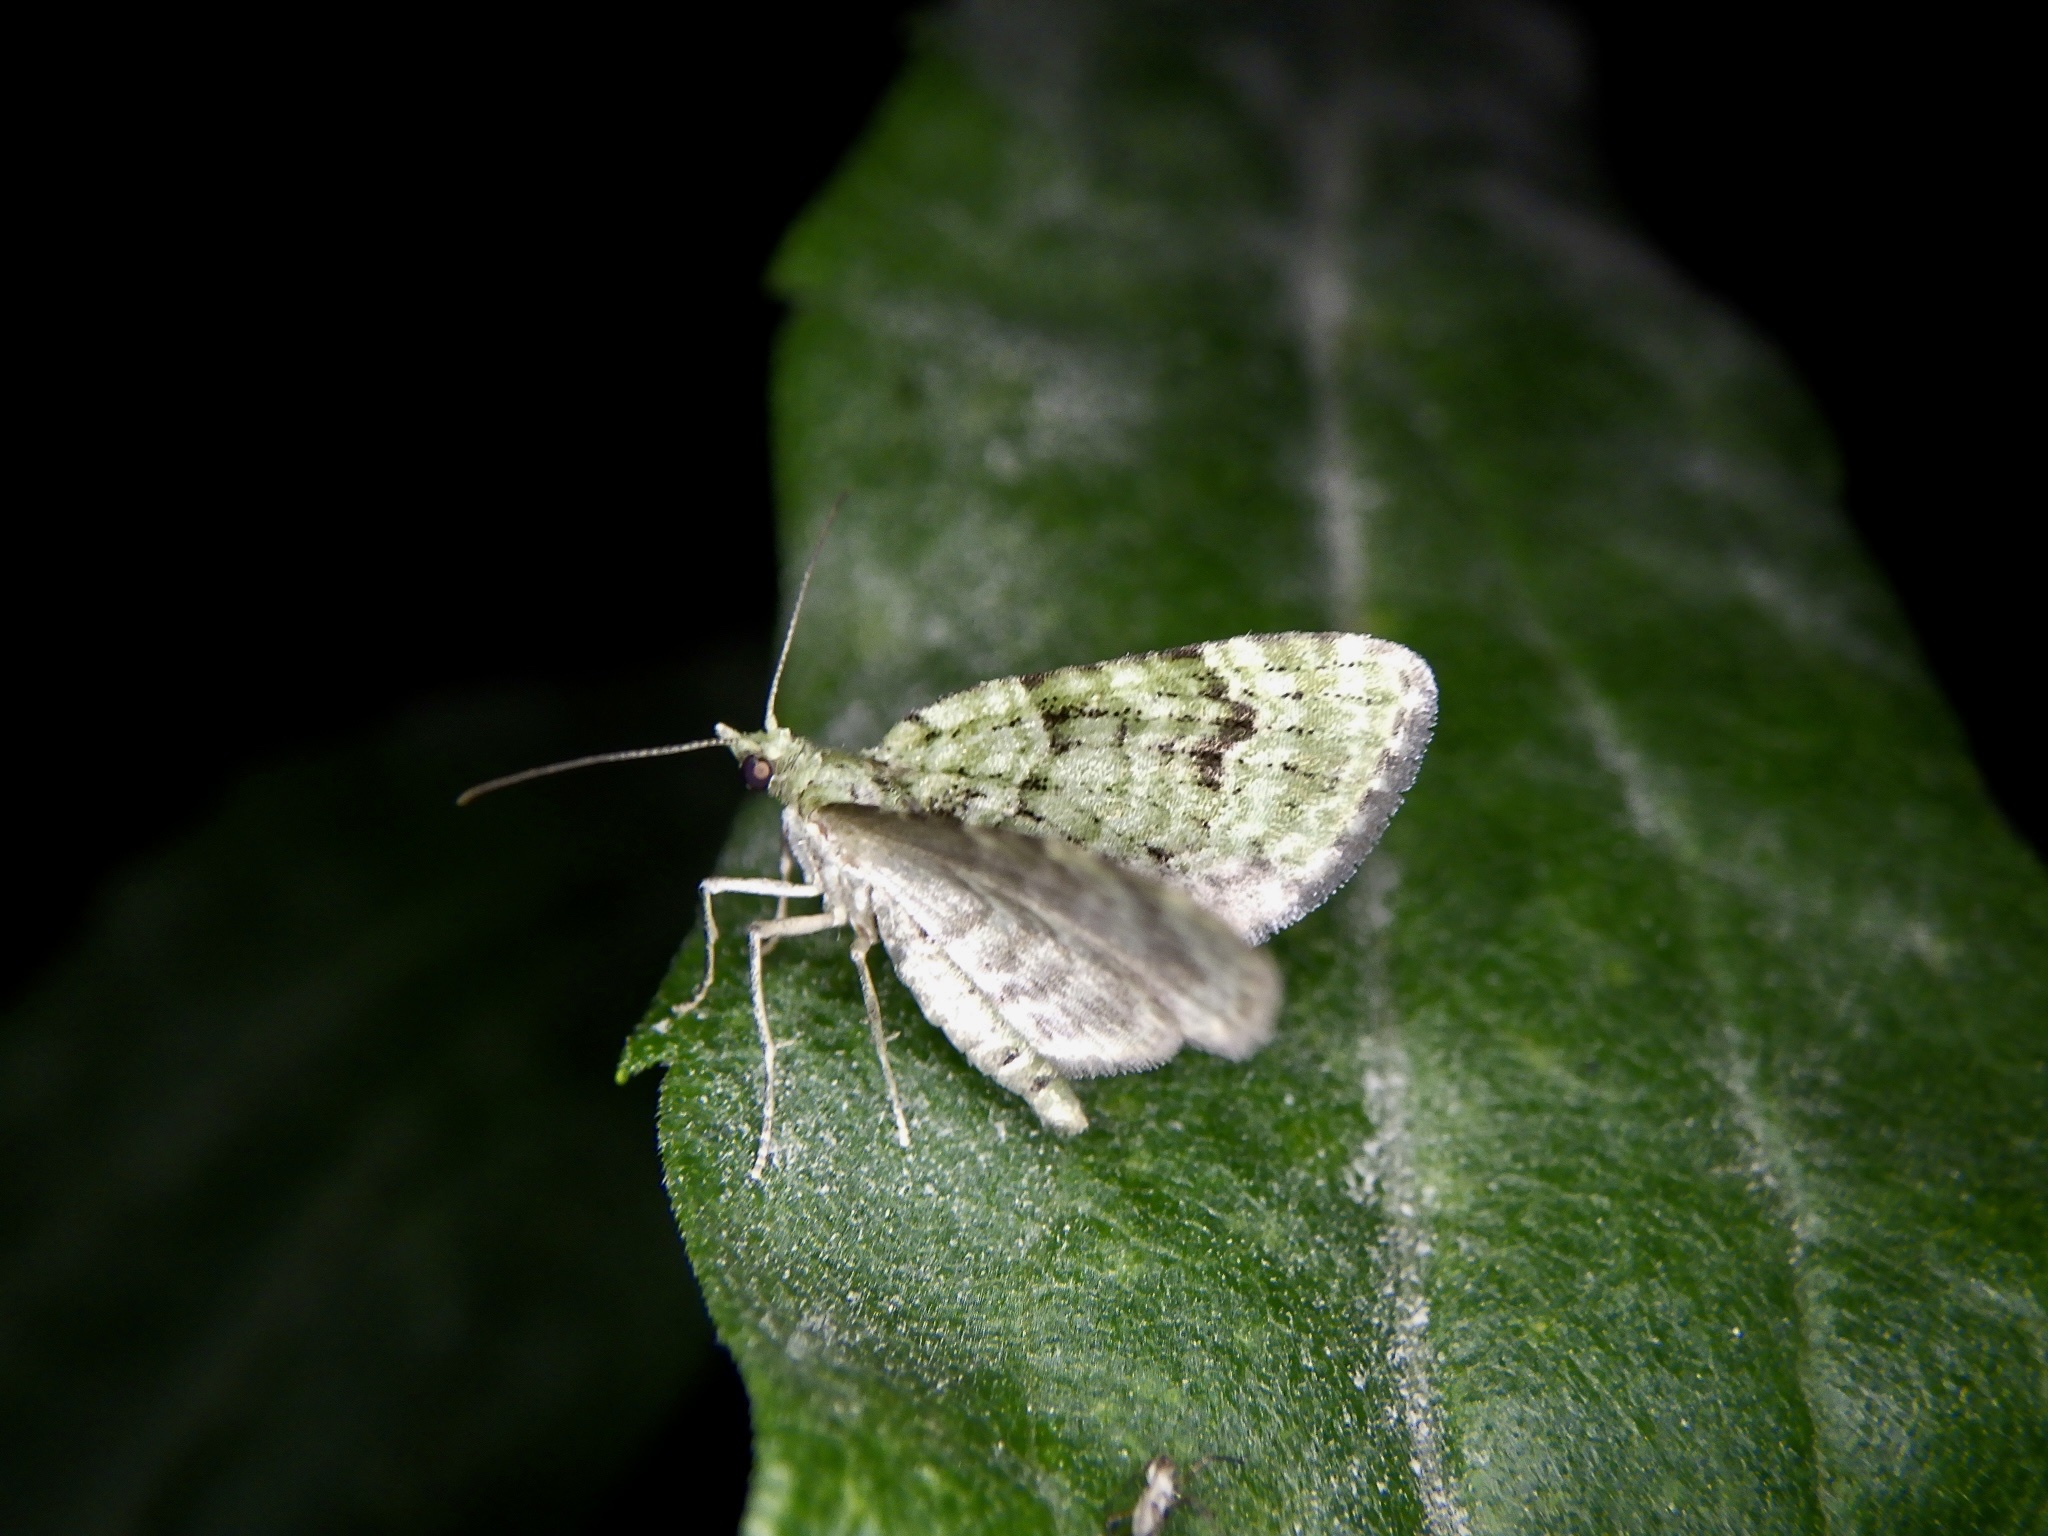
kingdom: Animalia
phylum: Arthropoda
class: Insecta
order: Lepidoptera
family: Geometridae
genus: Chloroclystis
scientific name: Chloroclystis v-ata
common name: V-pug
